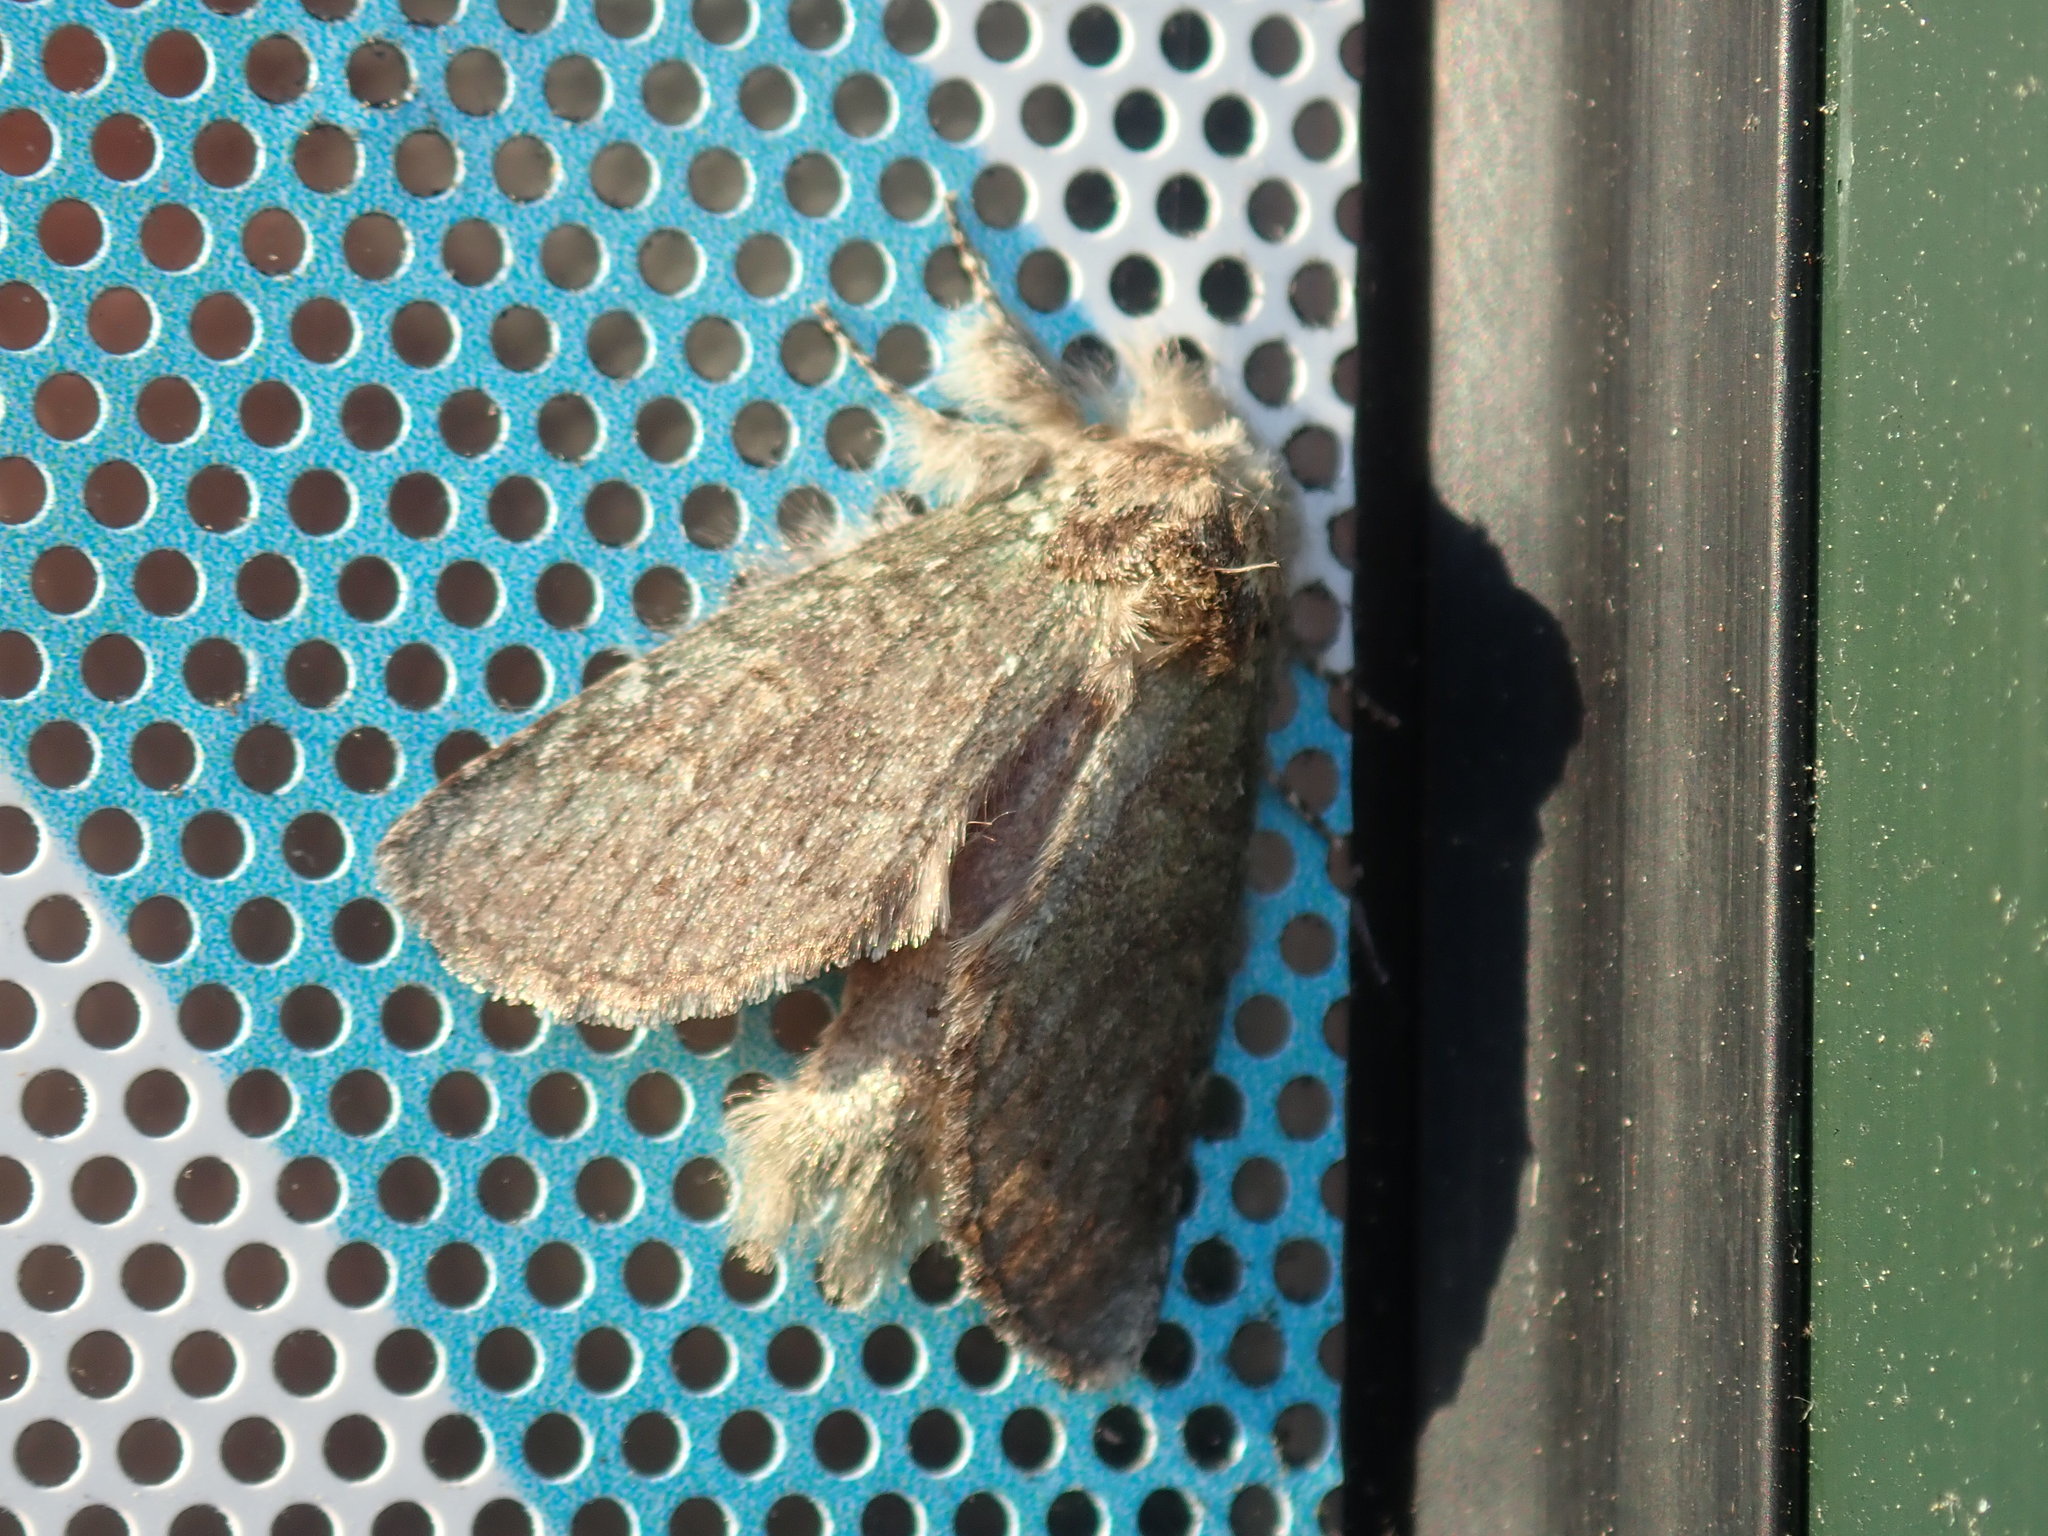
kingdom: Animalia
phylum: Arthropoda
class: Insecta
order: Lepidoptera
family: Notodontidae
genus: Disphragis
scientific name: Disphragis Cecrita guttivitta
